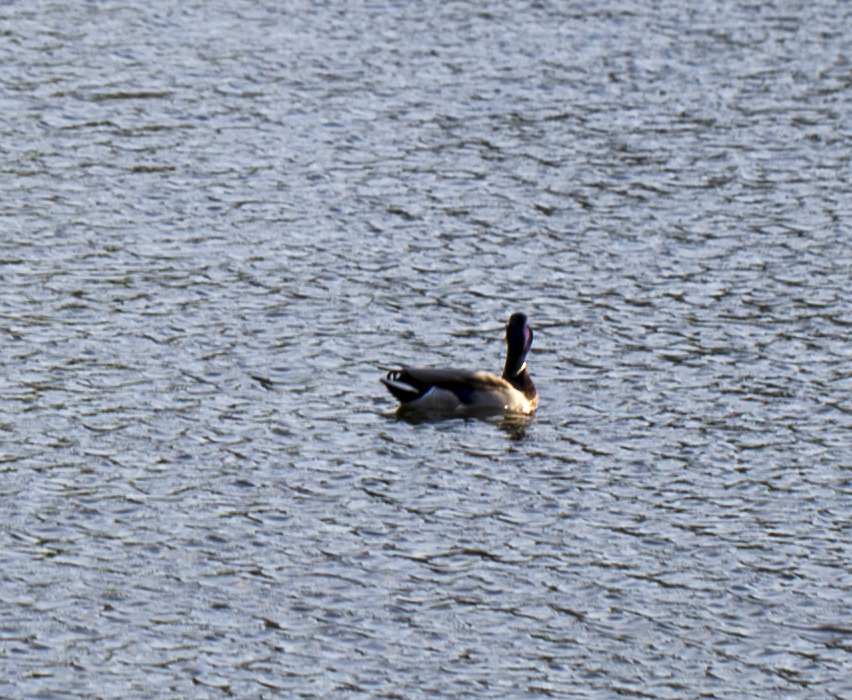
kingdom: Animalia
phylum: Chordata
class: Aves
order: Anseriformes
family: Anatidae
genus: Anas
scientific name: Anas platyrhynchos
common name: Mallard
